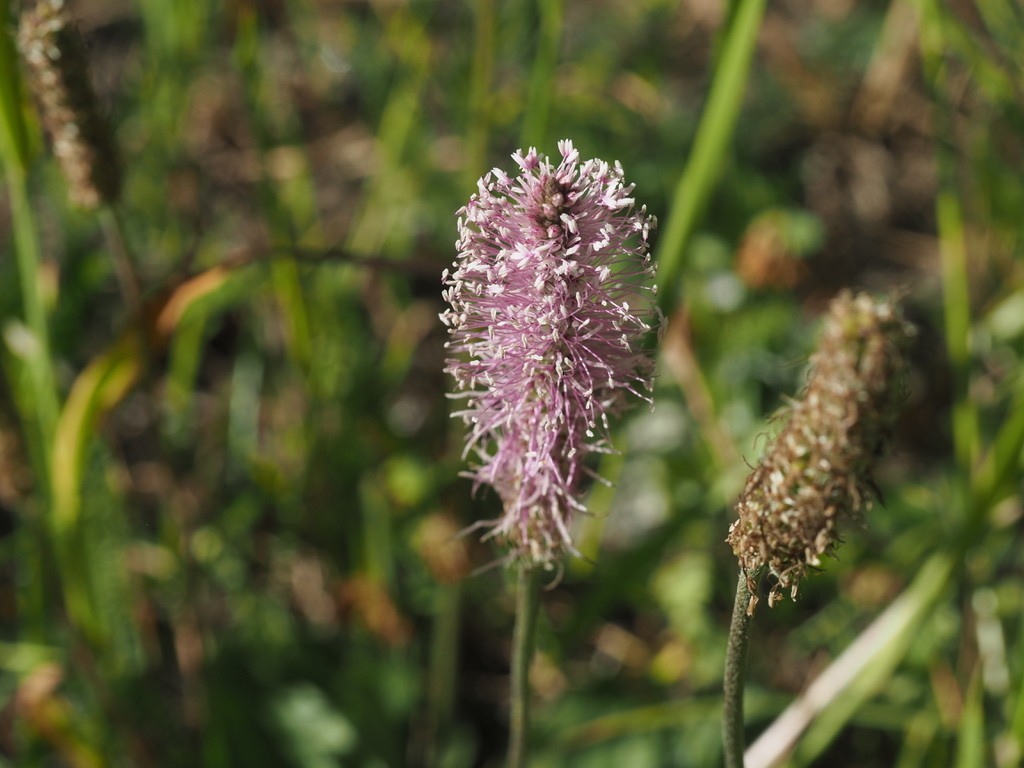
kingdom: Plantae
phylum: Tracheophyta
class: Magnoliopsida
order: Lamiales
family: Plantaginaceae
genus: Plantago
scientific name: Plantago media
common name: Hoary plantain
